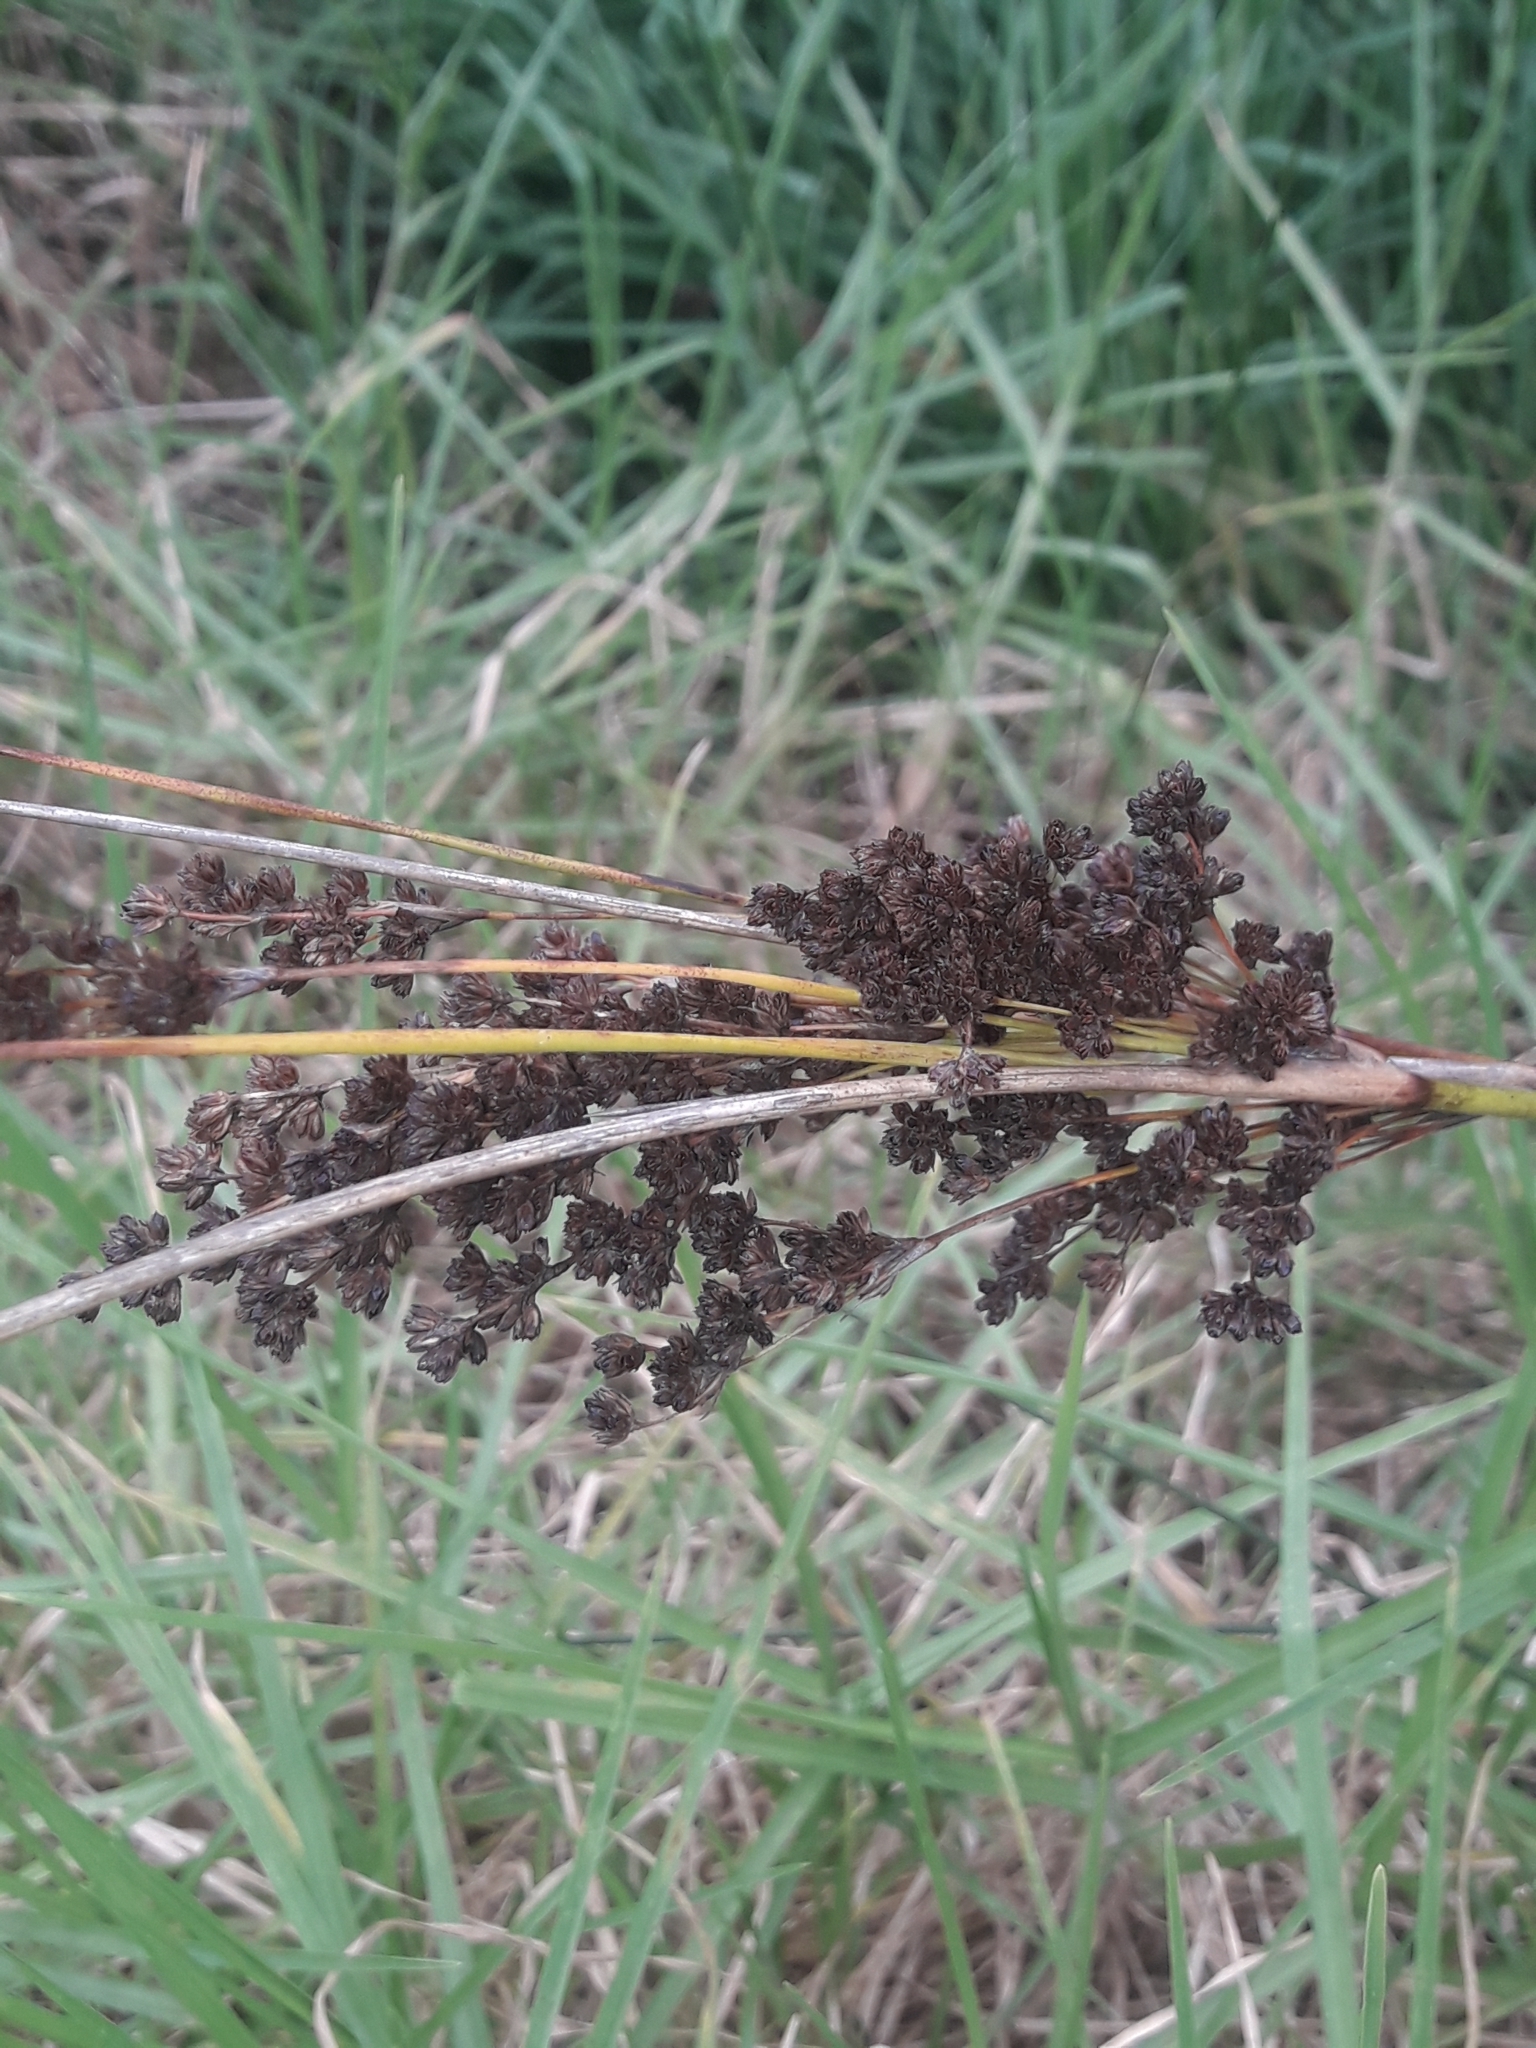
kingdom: Plantae
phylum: Tracheophyta
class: Liliopsida
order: Poales
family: Juncaceae
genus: Juncus
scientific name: Juncus kraussii
